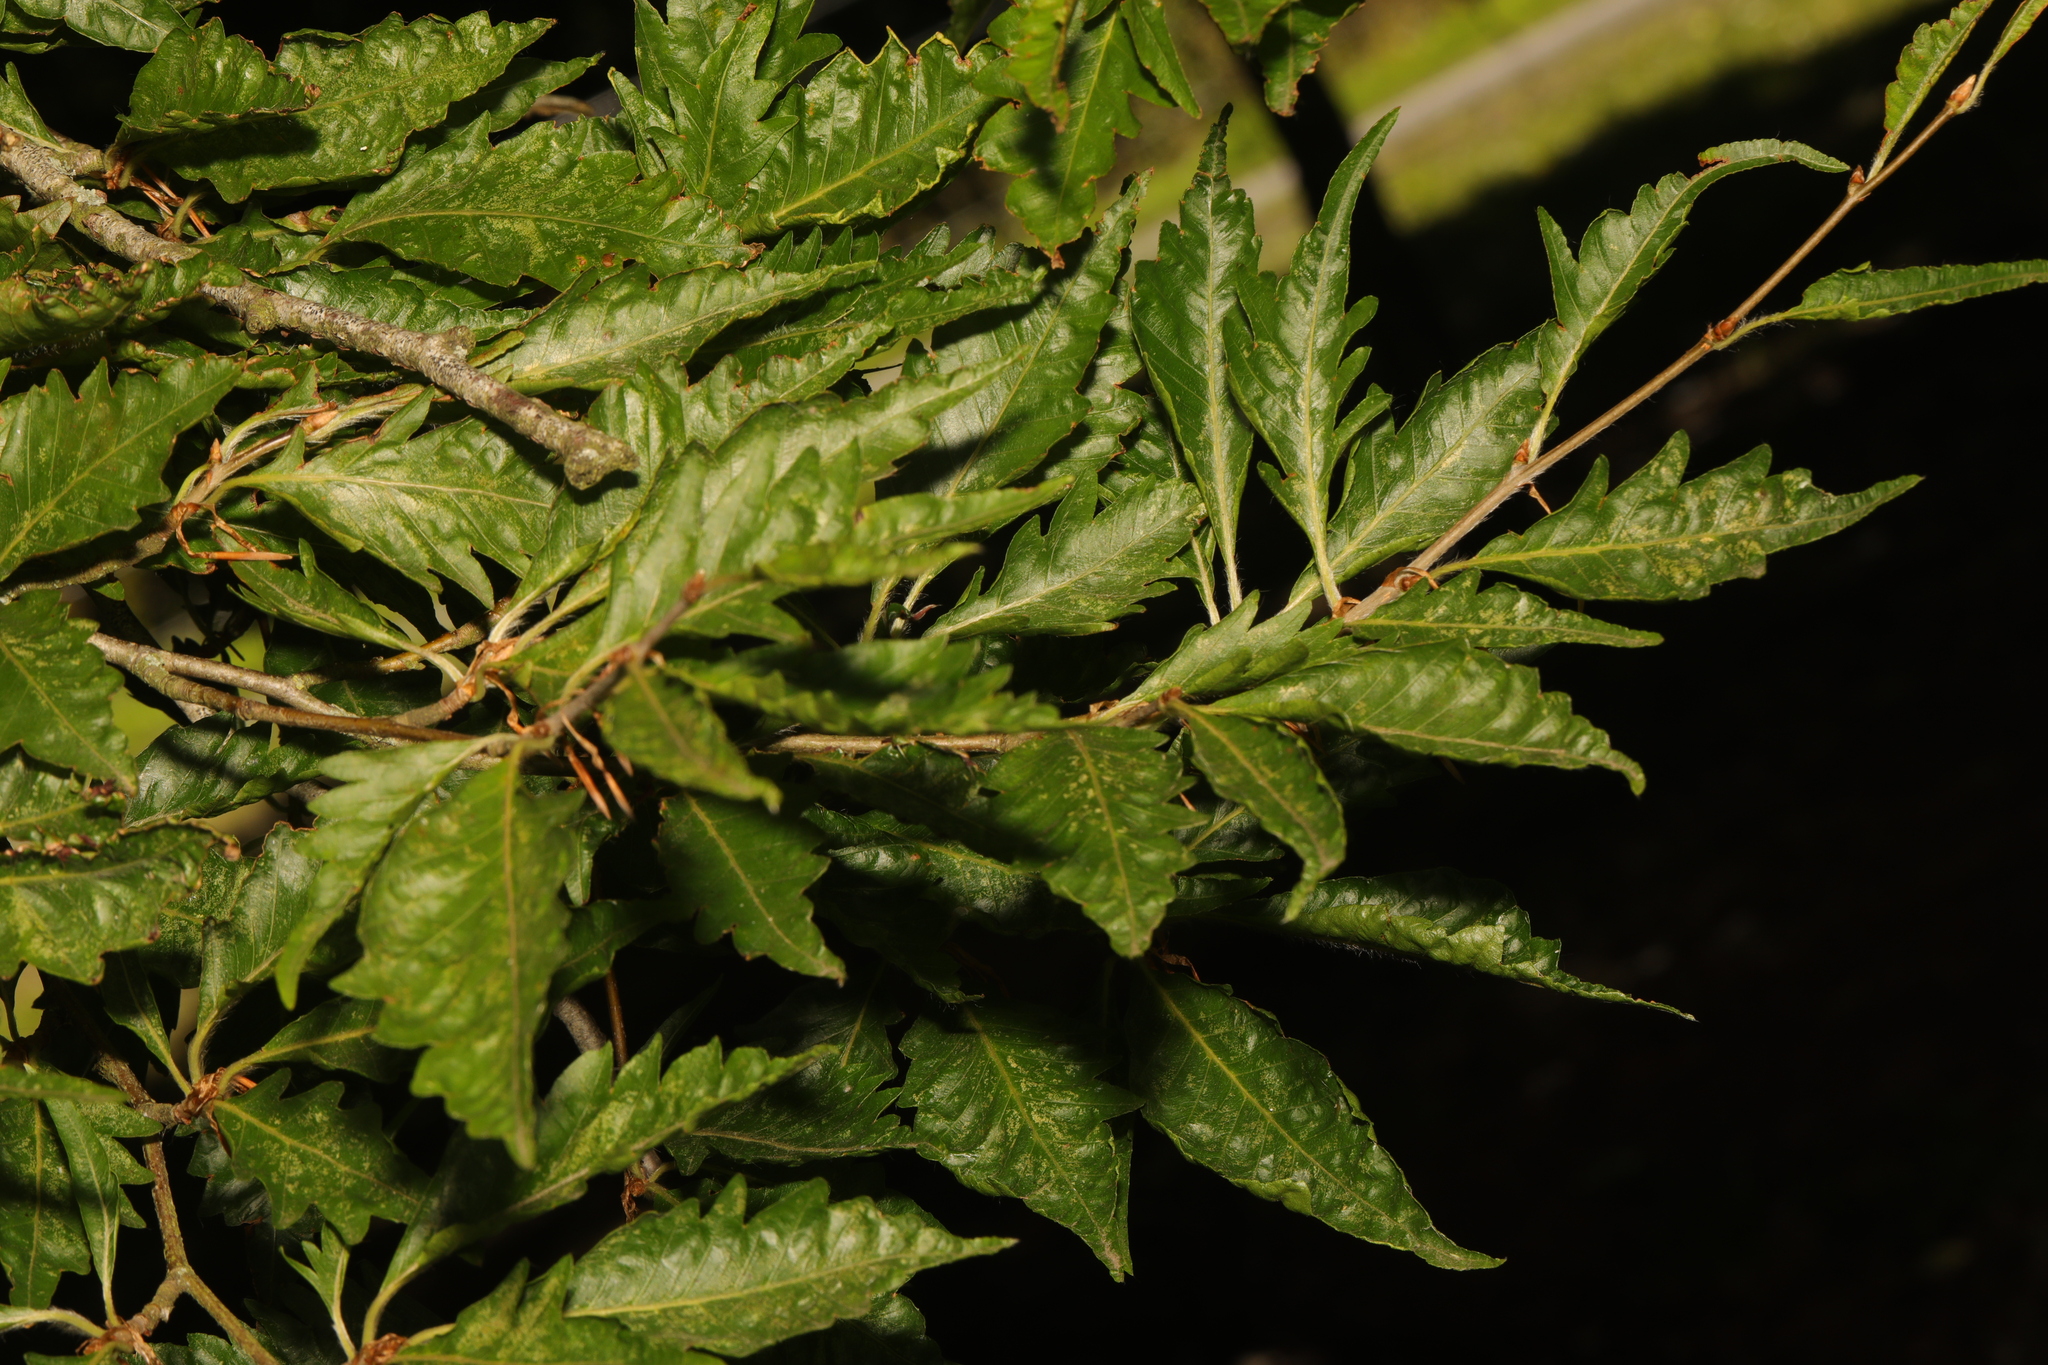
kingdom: Plantae
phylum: Tracheophyta
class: Magnoliopsida
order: Fagales
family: Fagaceae
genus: Fagus
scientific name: Fagus sylvatica
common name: Beech
